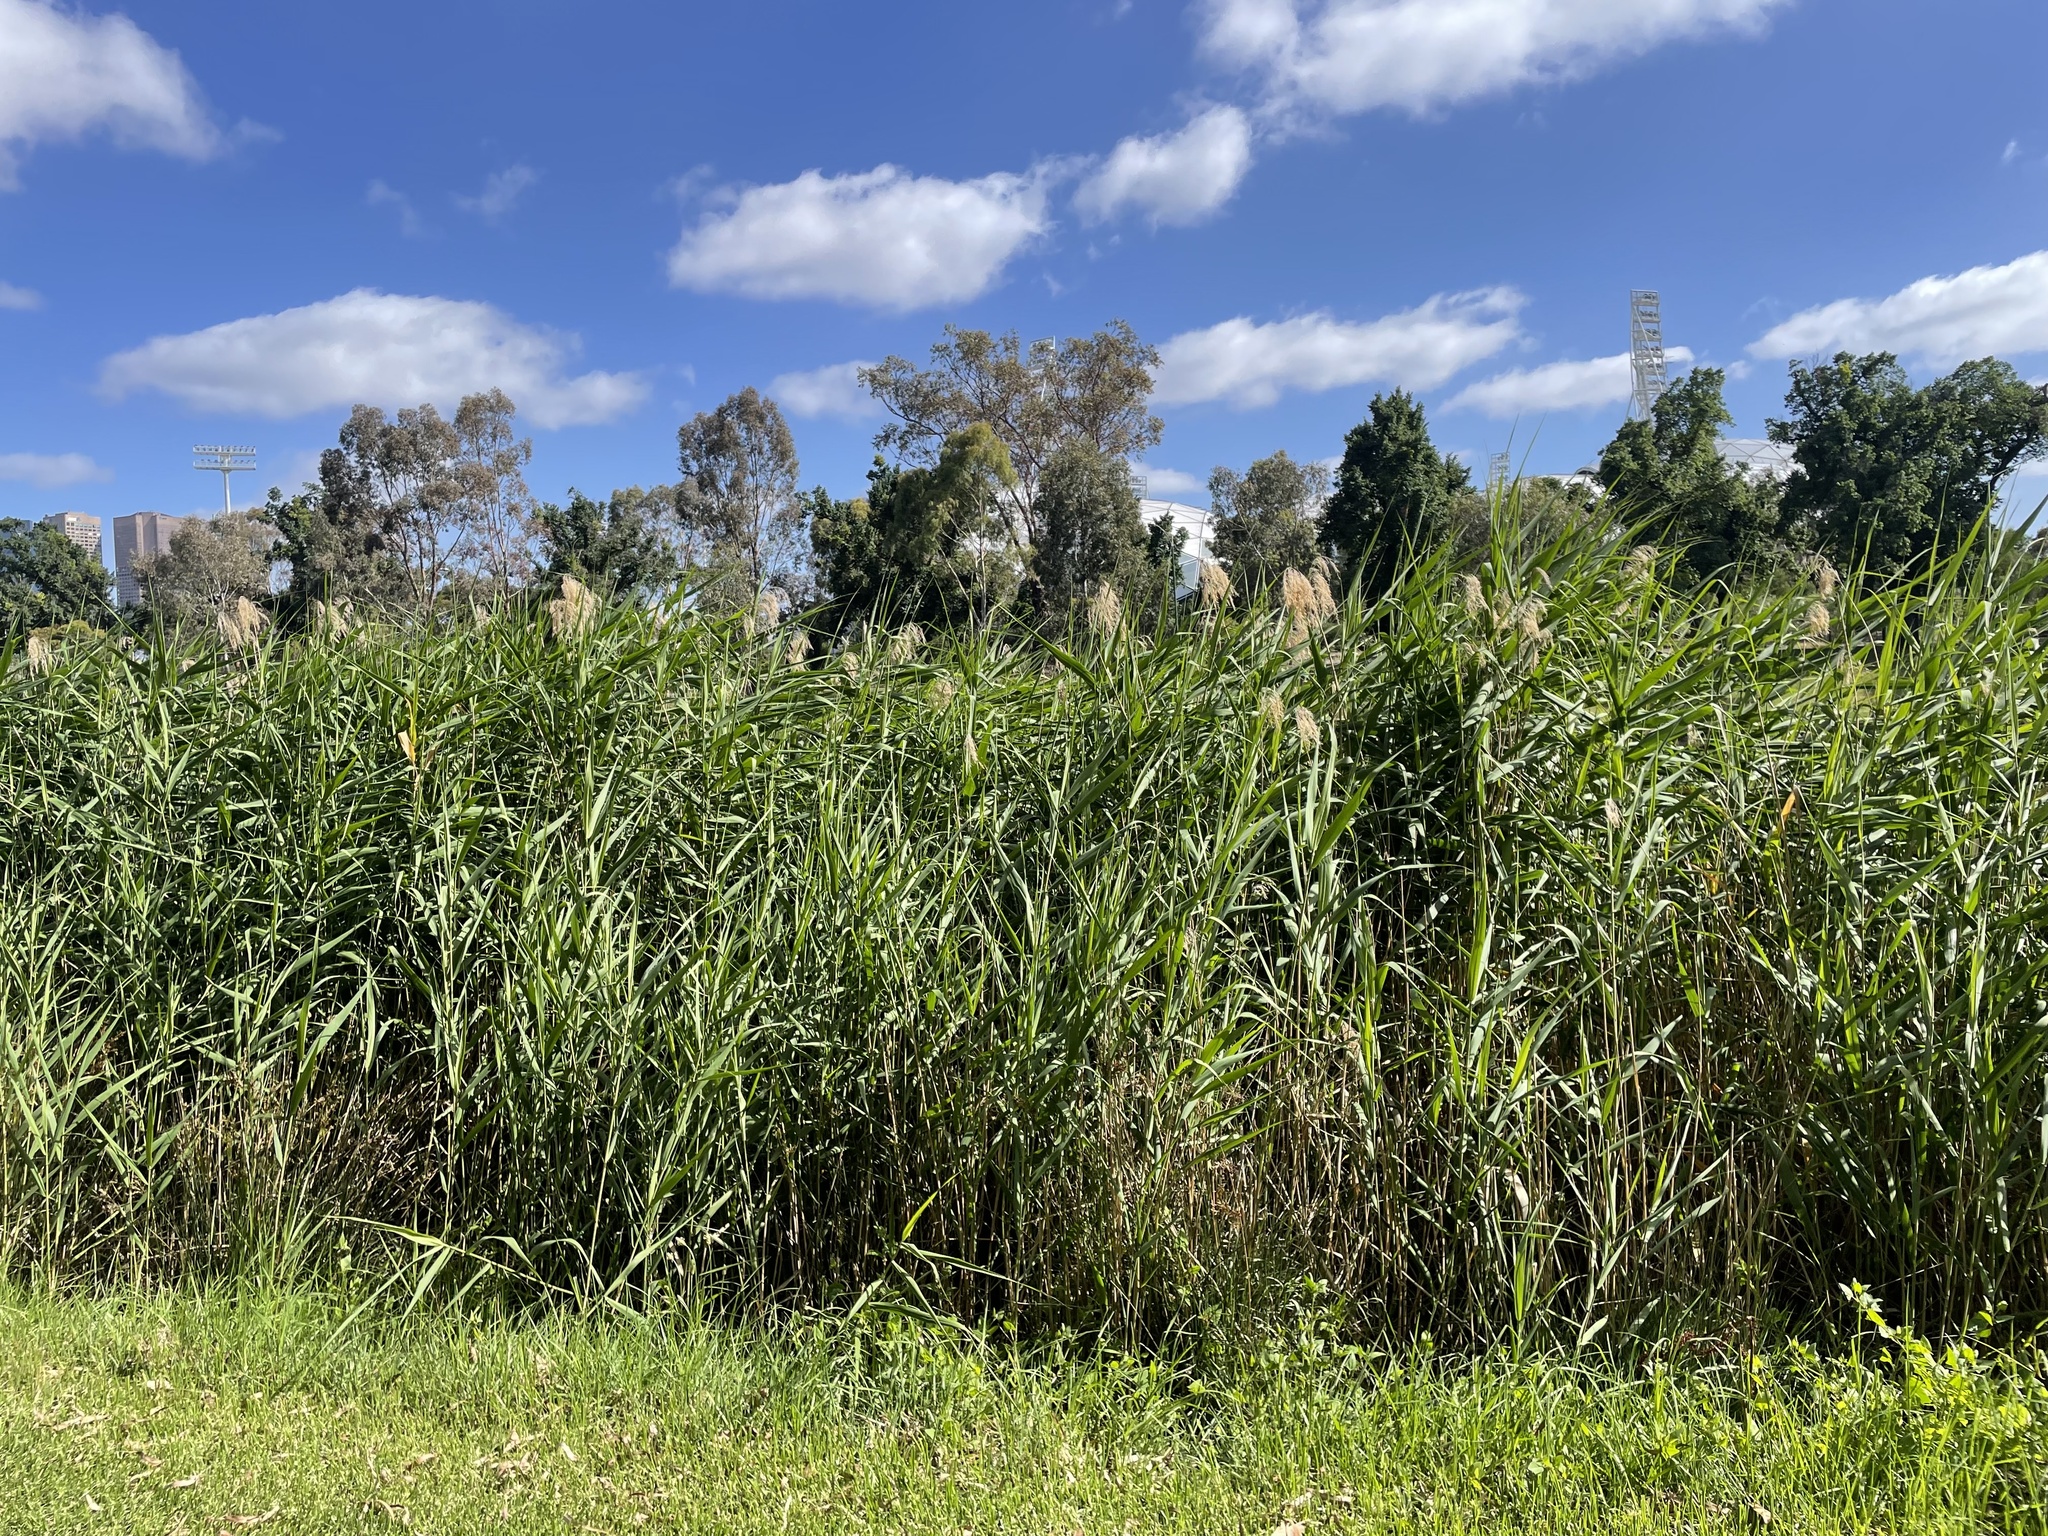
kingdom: Plantae
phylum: Tracheophyta
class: Liliopsida
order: Poales
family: Poaceae
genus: Phragmites
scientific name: Phragmites australis
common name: Common reed
